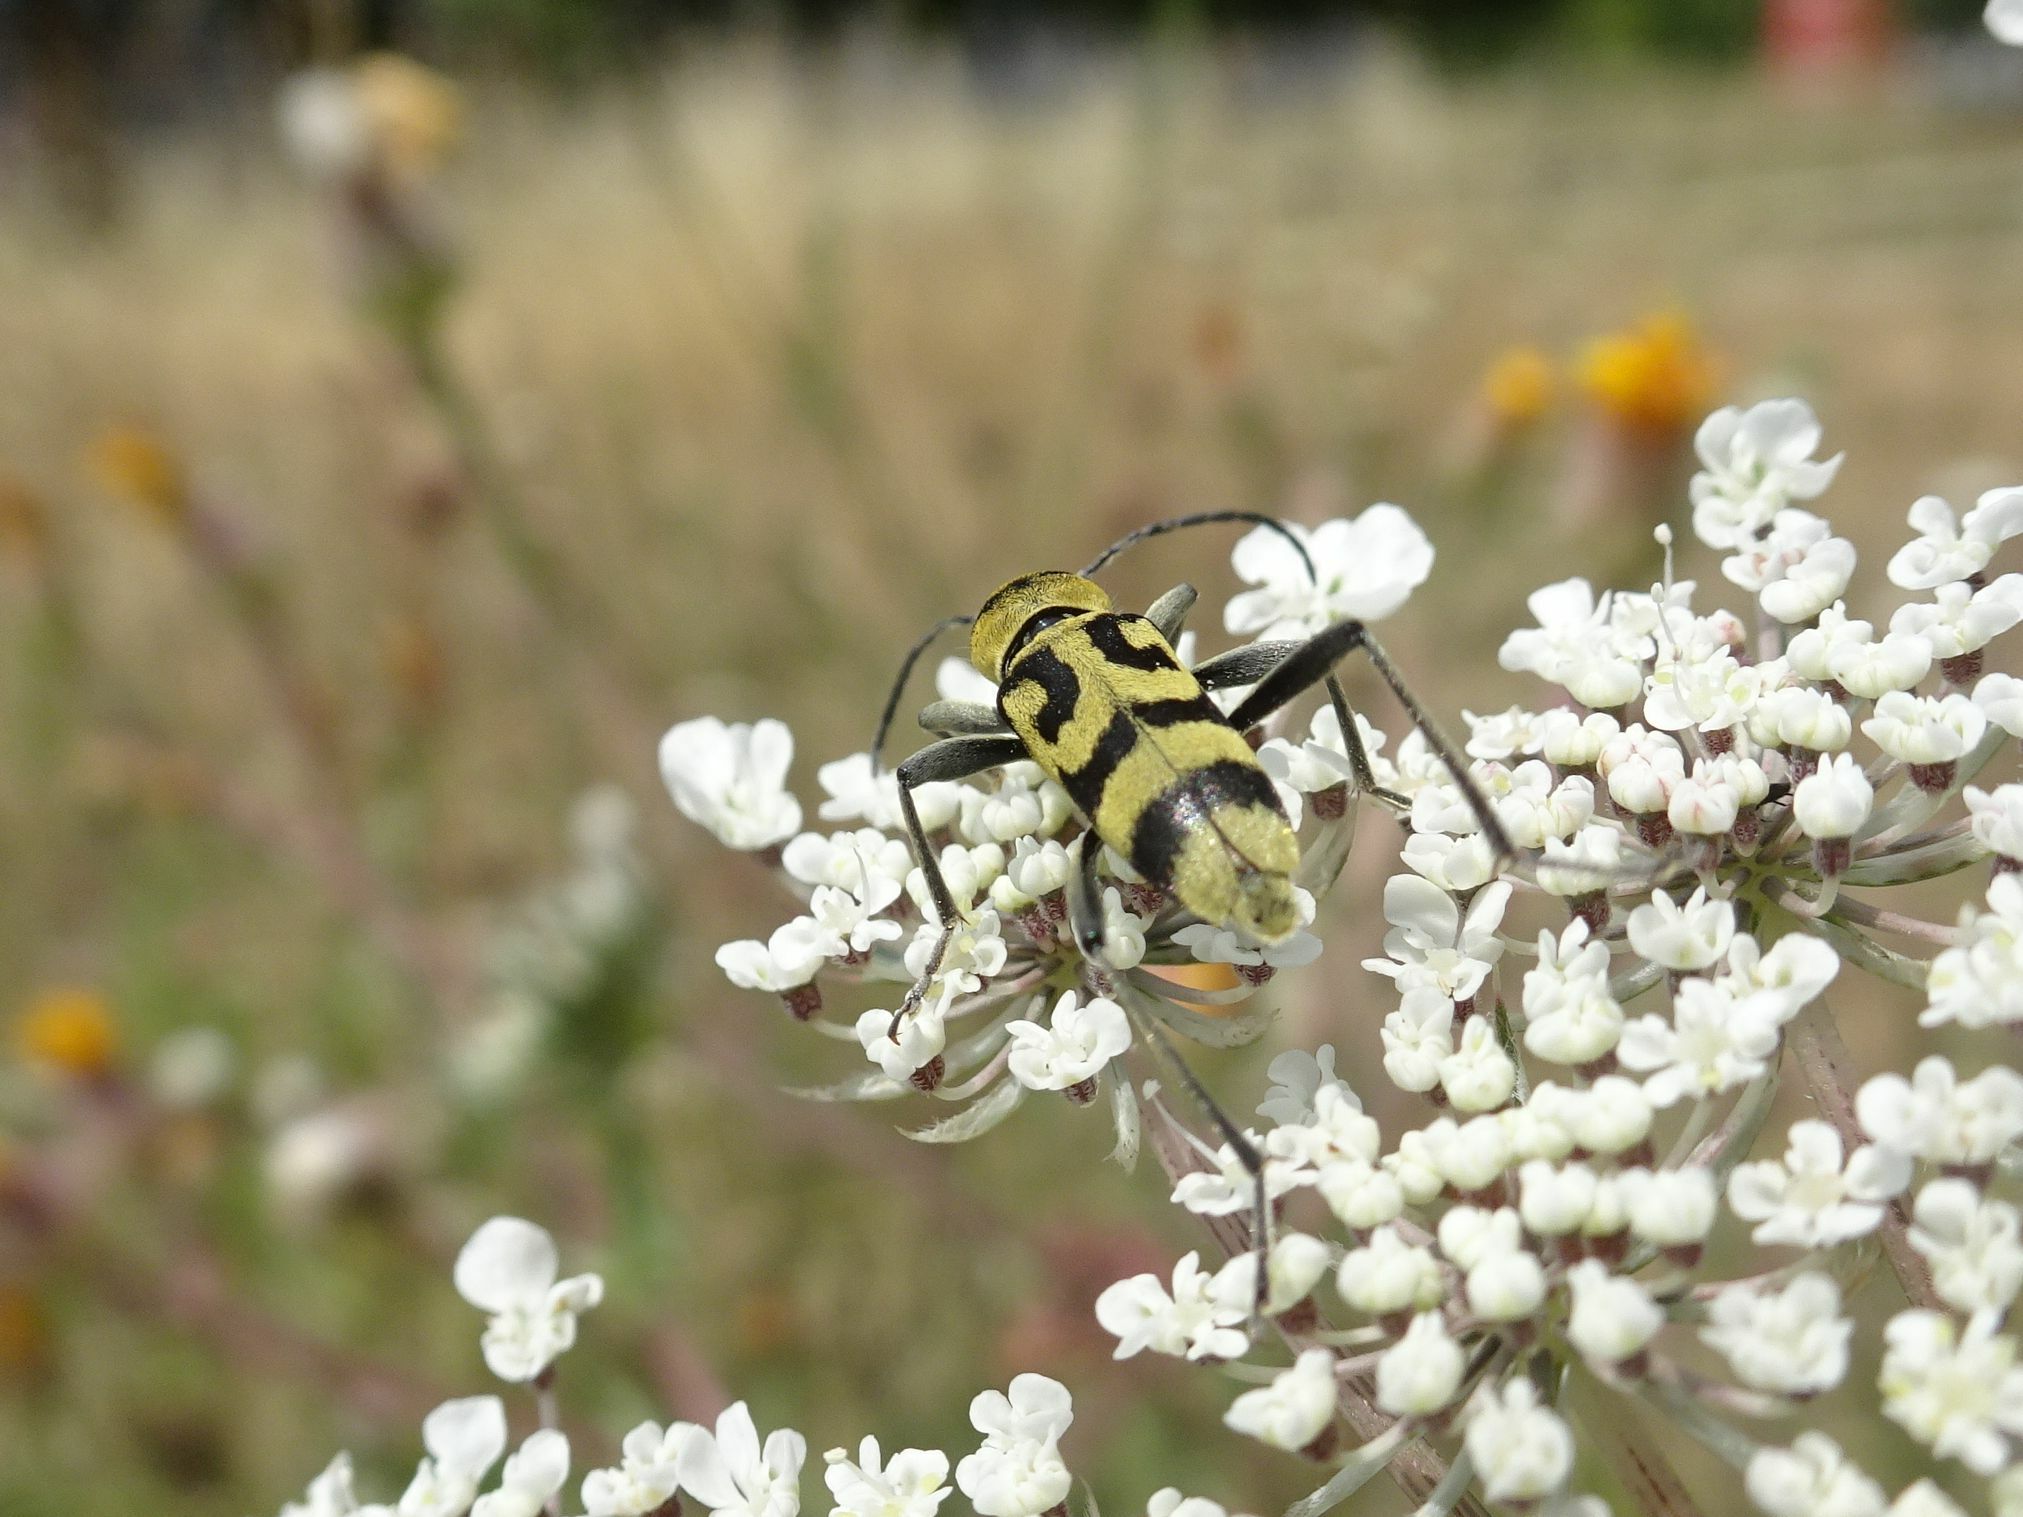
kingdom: Animalia
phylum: Arthropoda
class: Insecta
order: Coleoptera
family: Cerambycidae
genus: Chlorophorus
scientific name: Chlorophorus varius
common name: Grape wood borer
